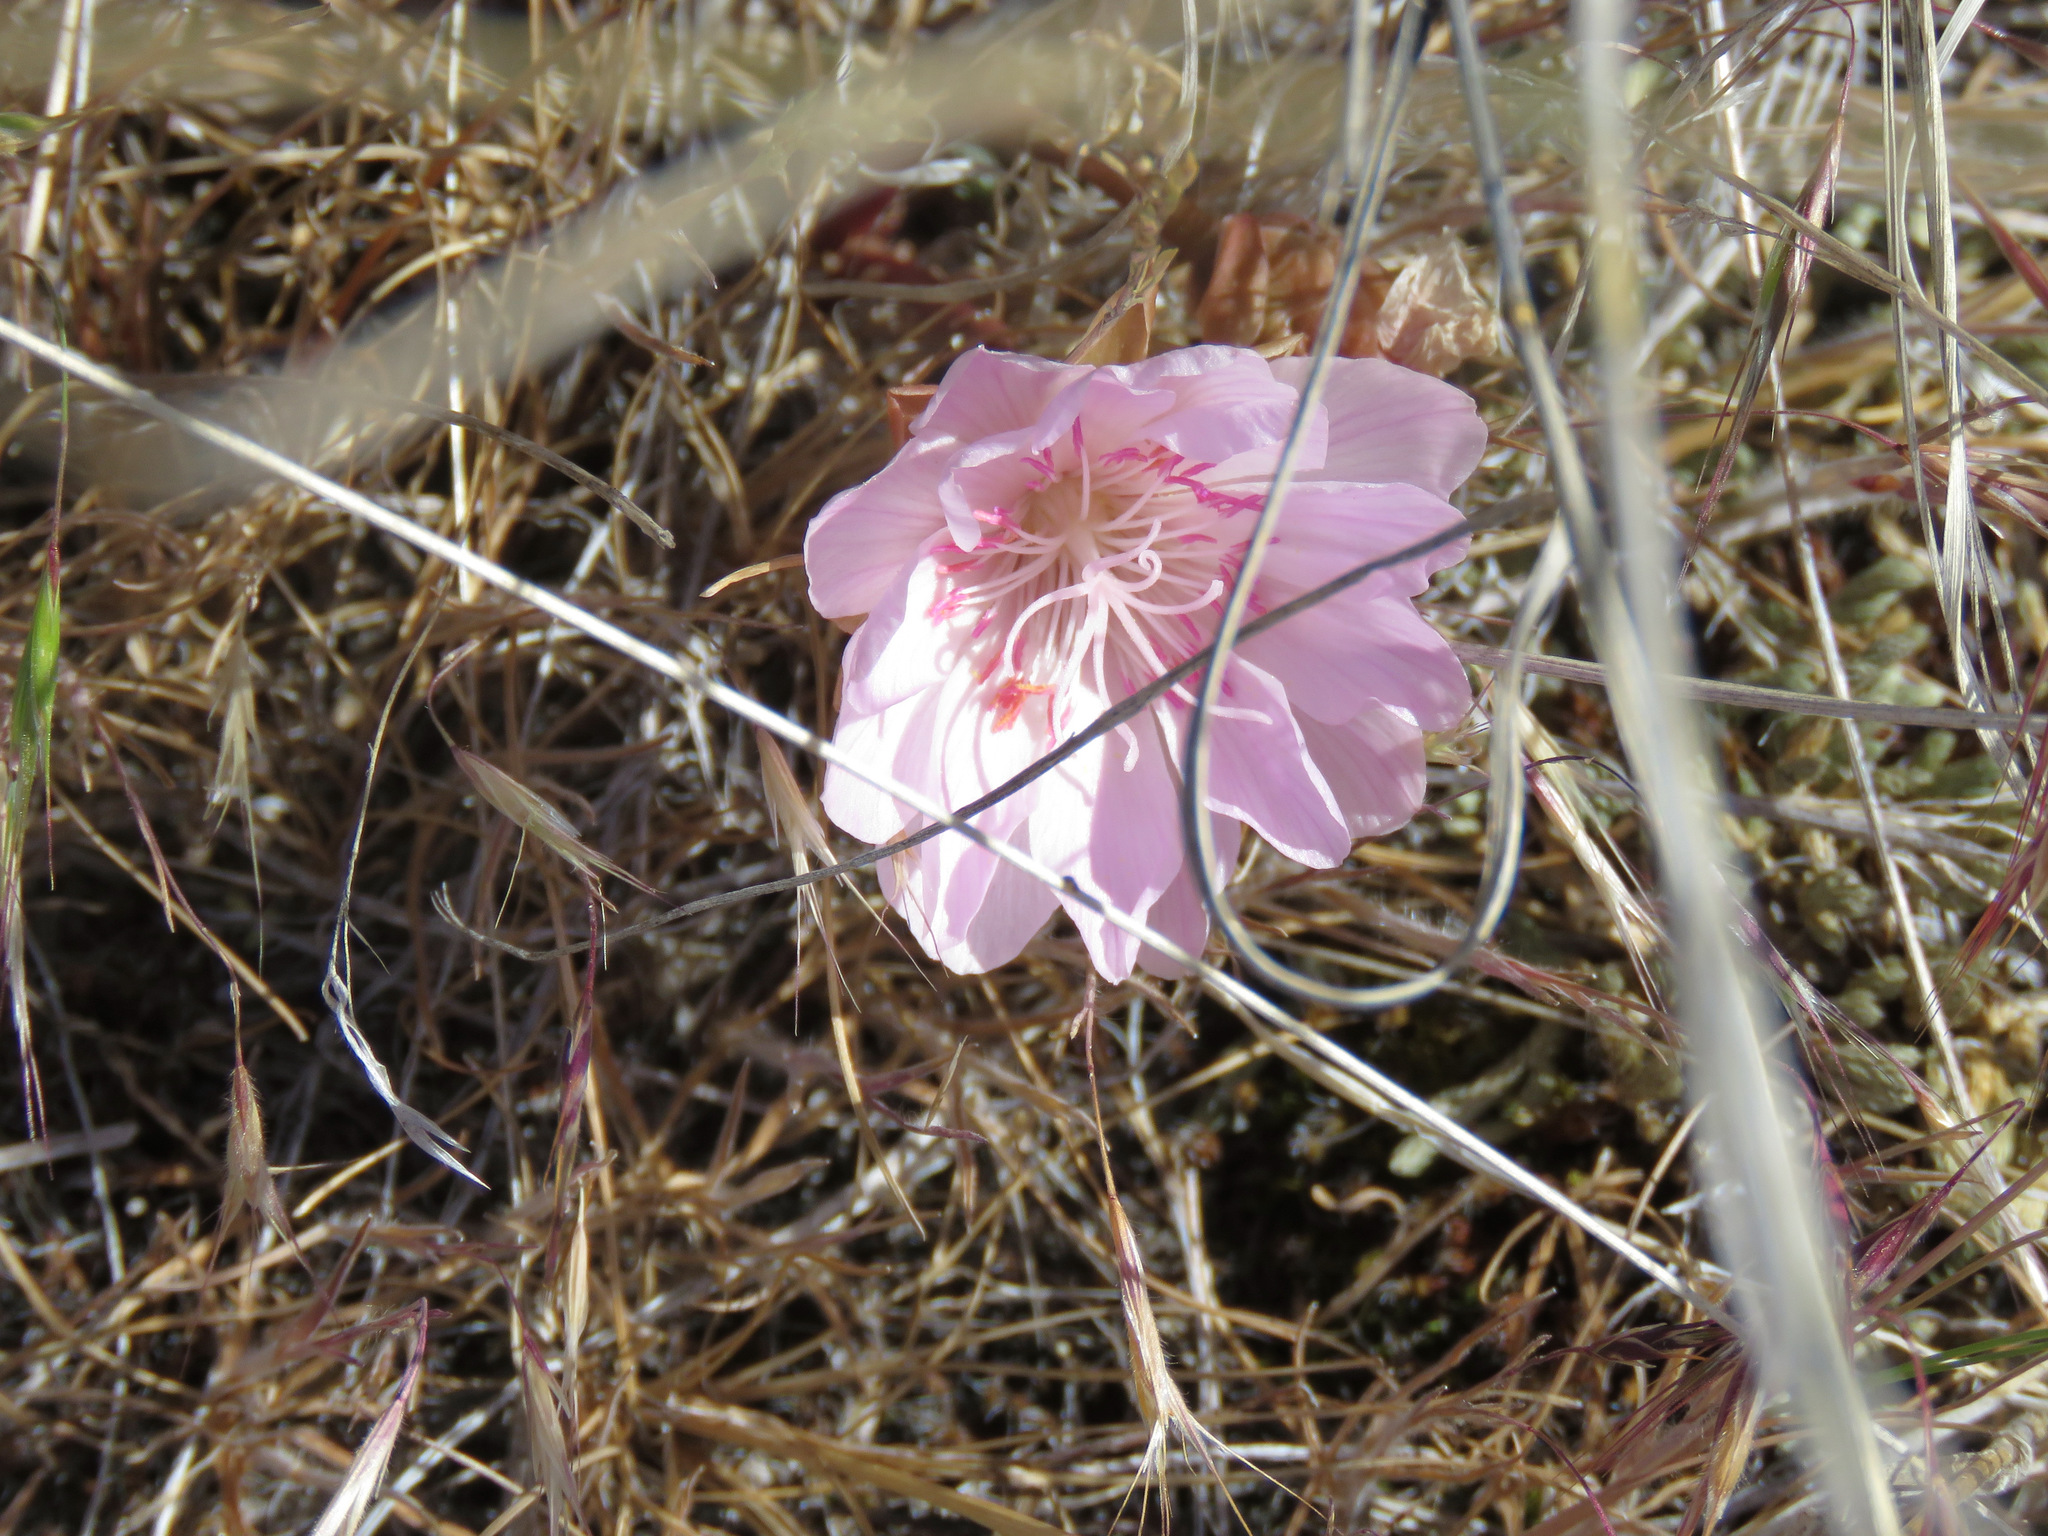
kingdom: Plantae
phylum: Tracheophyta
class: Magnoliopsida
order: Caryophyllales
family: Montiaceae
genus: Lewisia
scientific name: Lewisia rediviva
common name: Bitter-root
